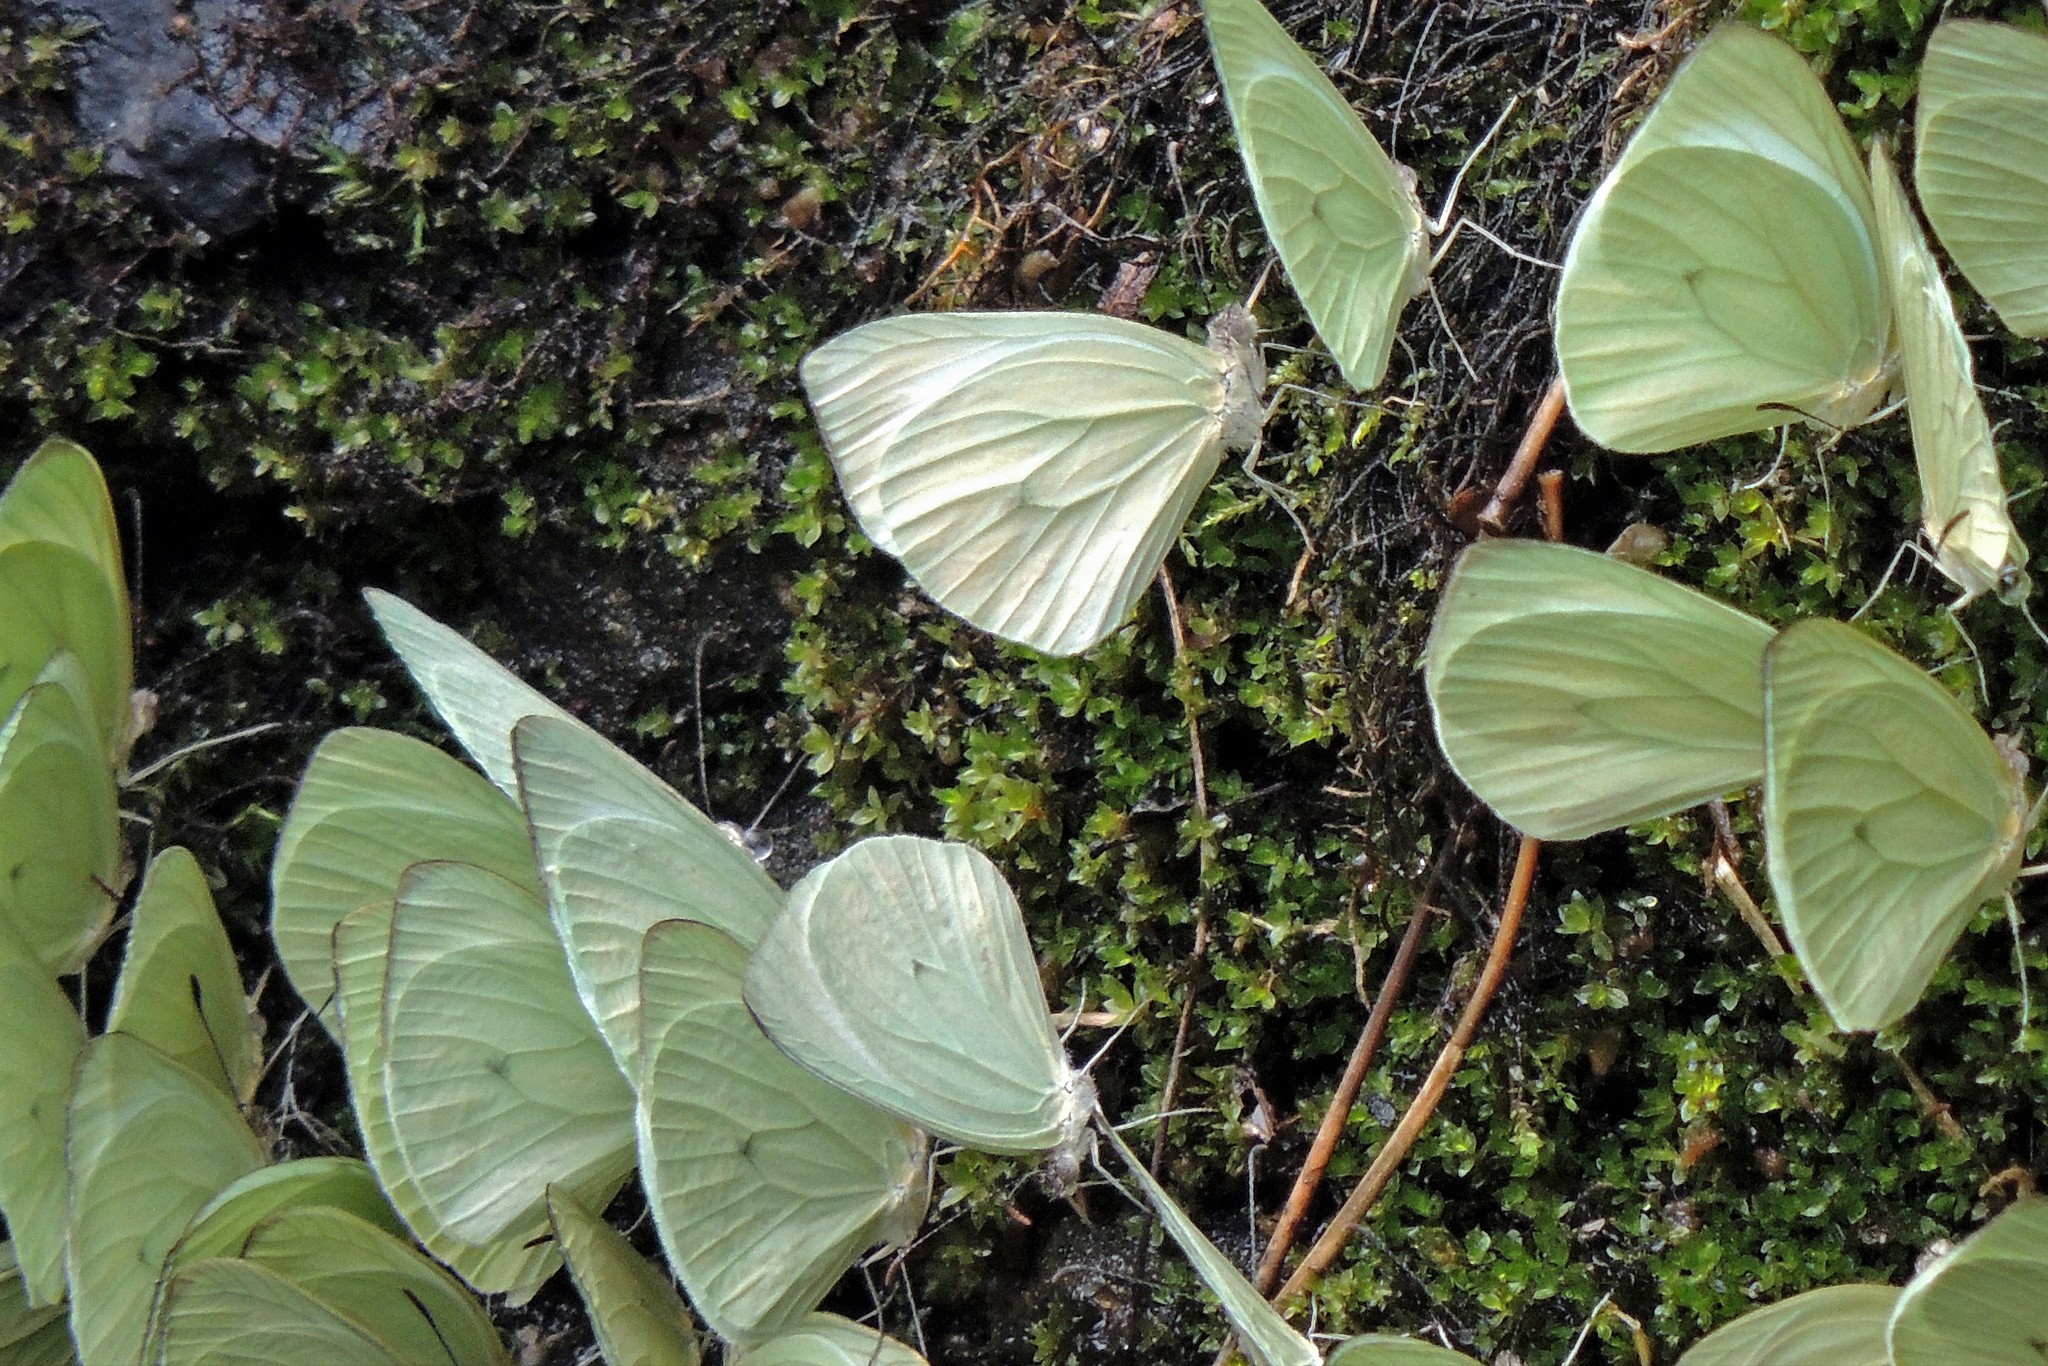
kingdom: Animalia
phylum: Arthropoda
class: Insecta
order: Lepidoptera
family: Pieridae
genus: Pseudopieris
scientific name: Pseudopieris nehemia
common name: Clean mimic-white
